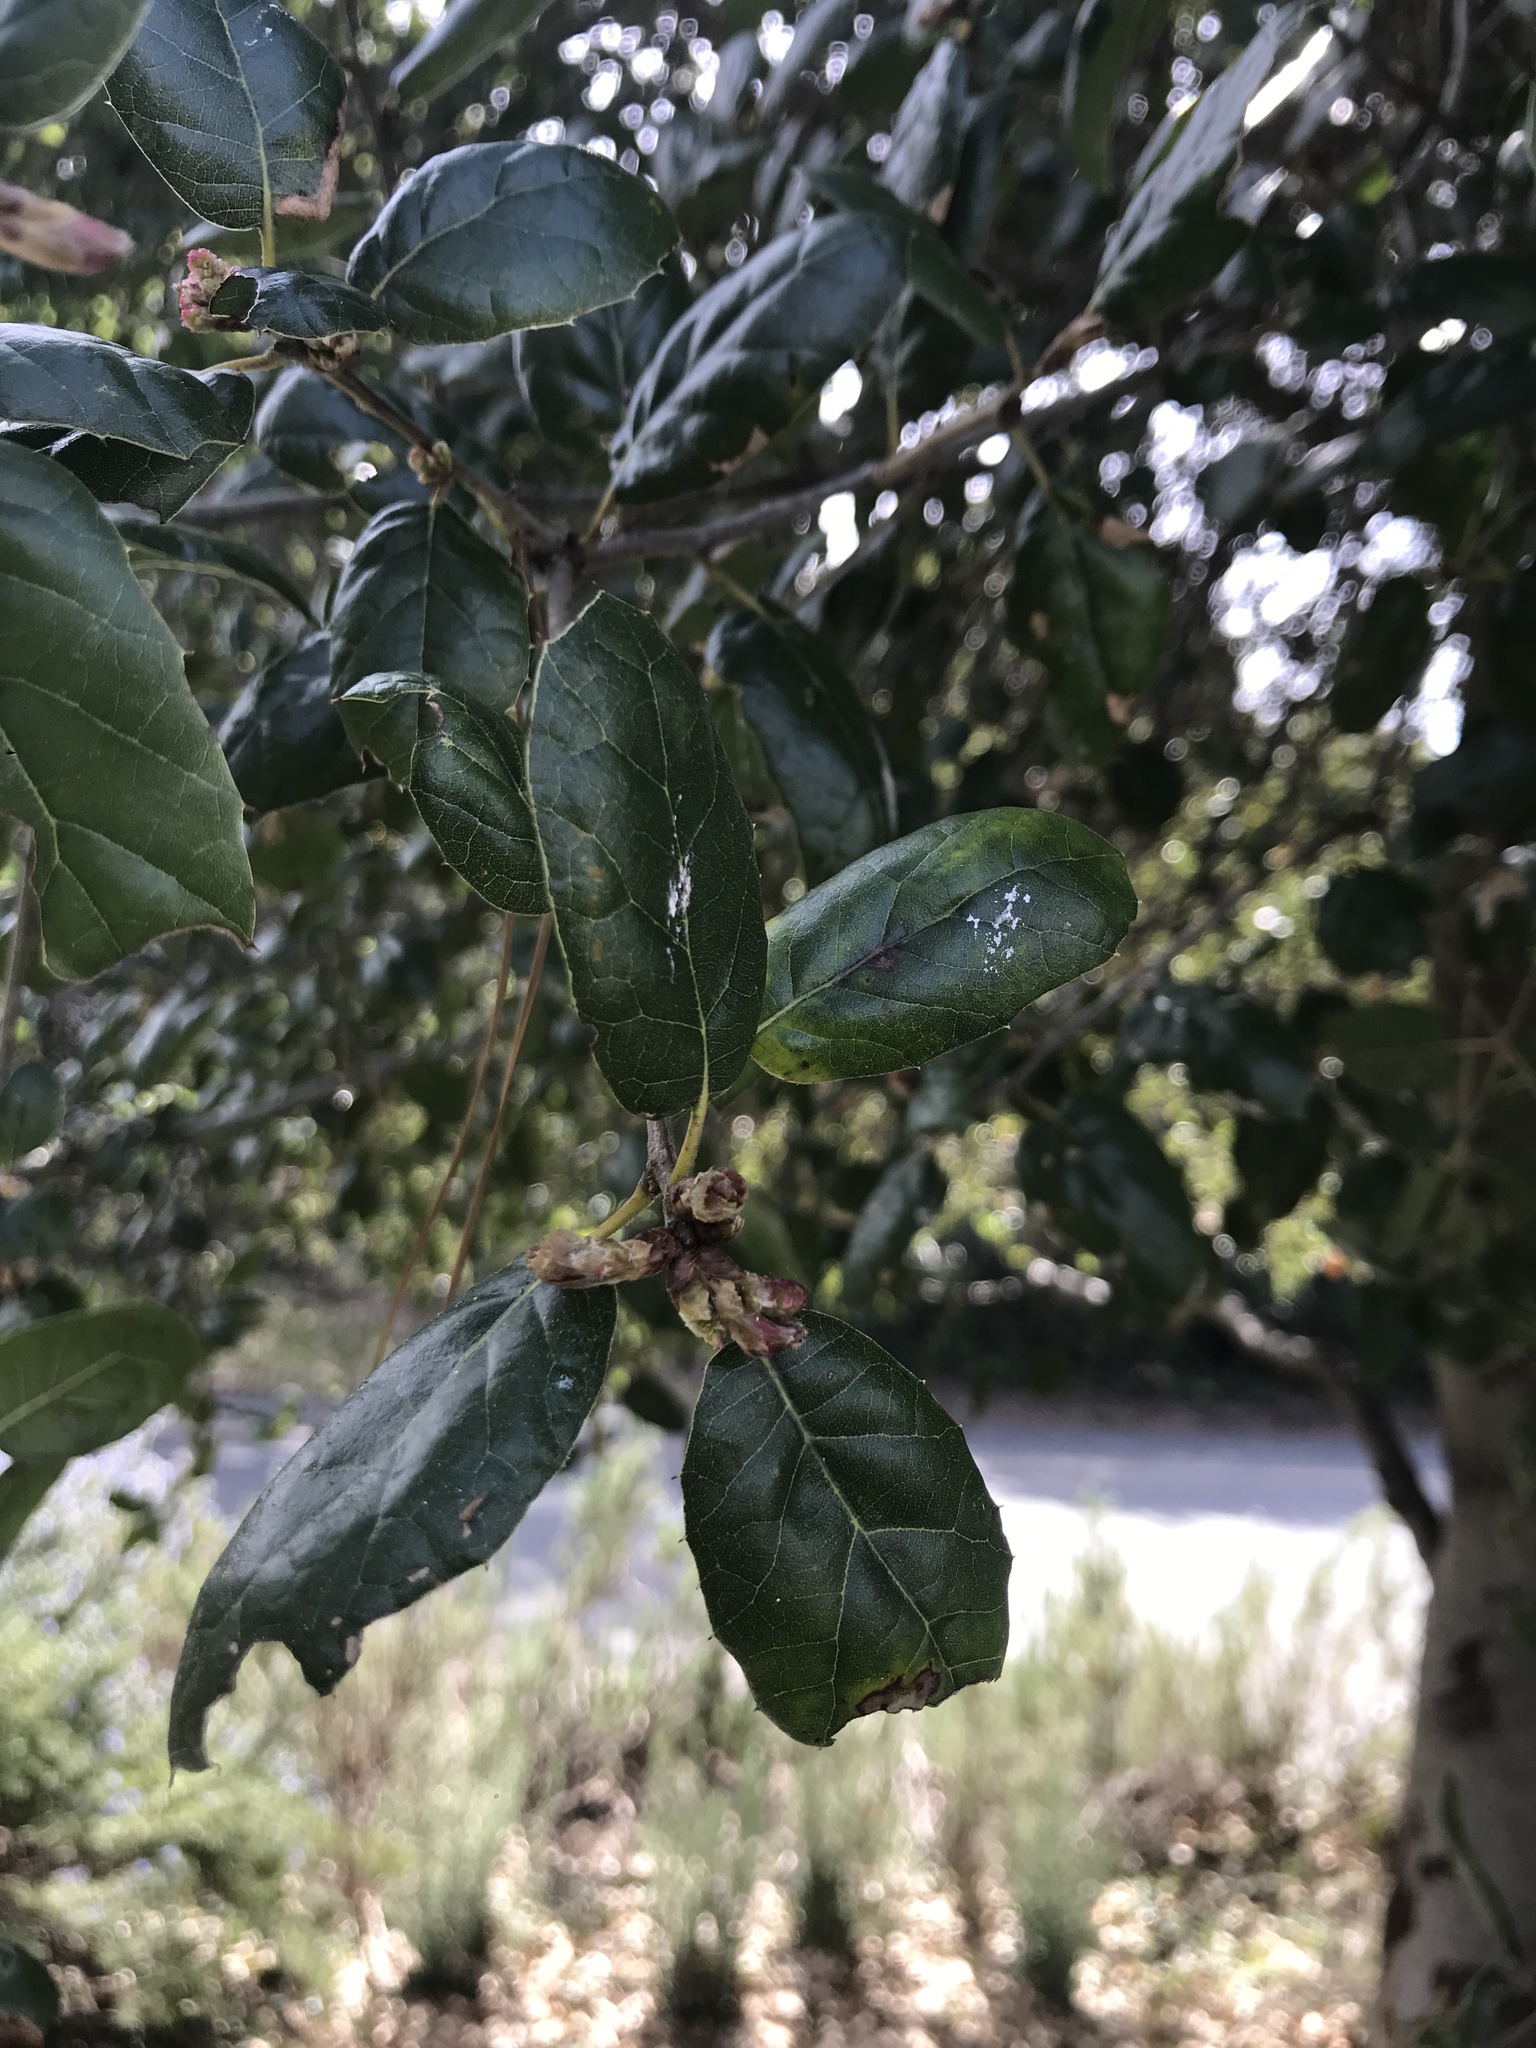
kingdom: Plantae
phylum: Tracheophyta
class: Magnoliopsida
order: Fagales
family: Fagaceae
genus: Quercus
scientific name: Quercus agrifolia
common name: California live oak
